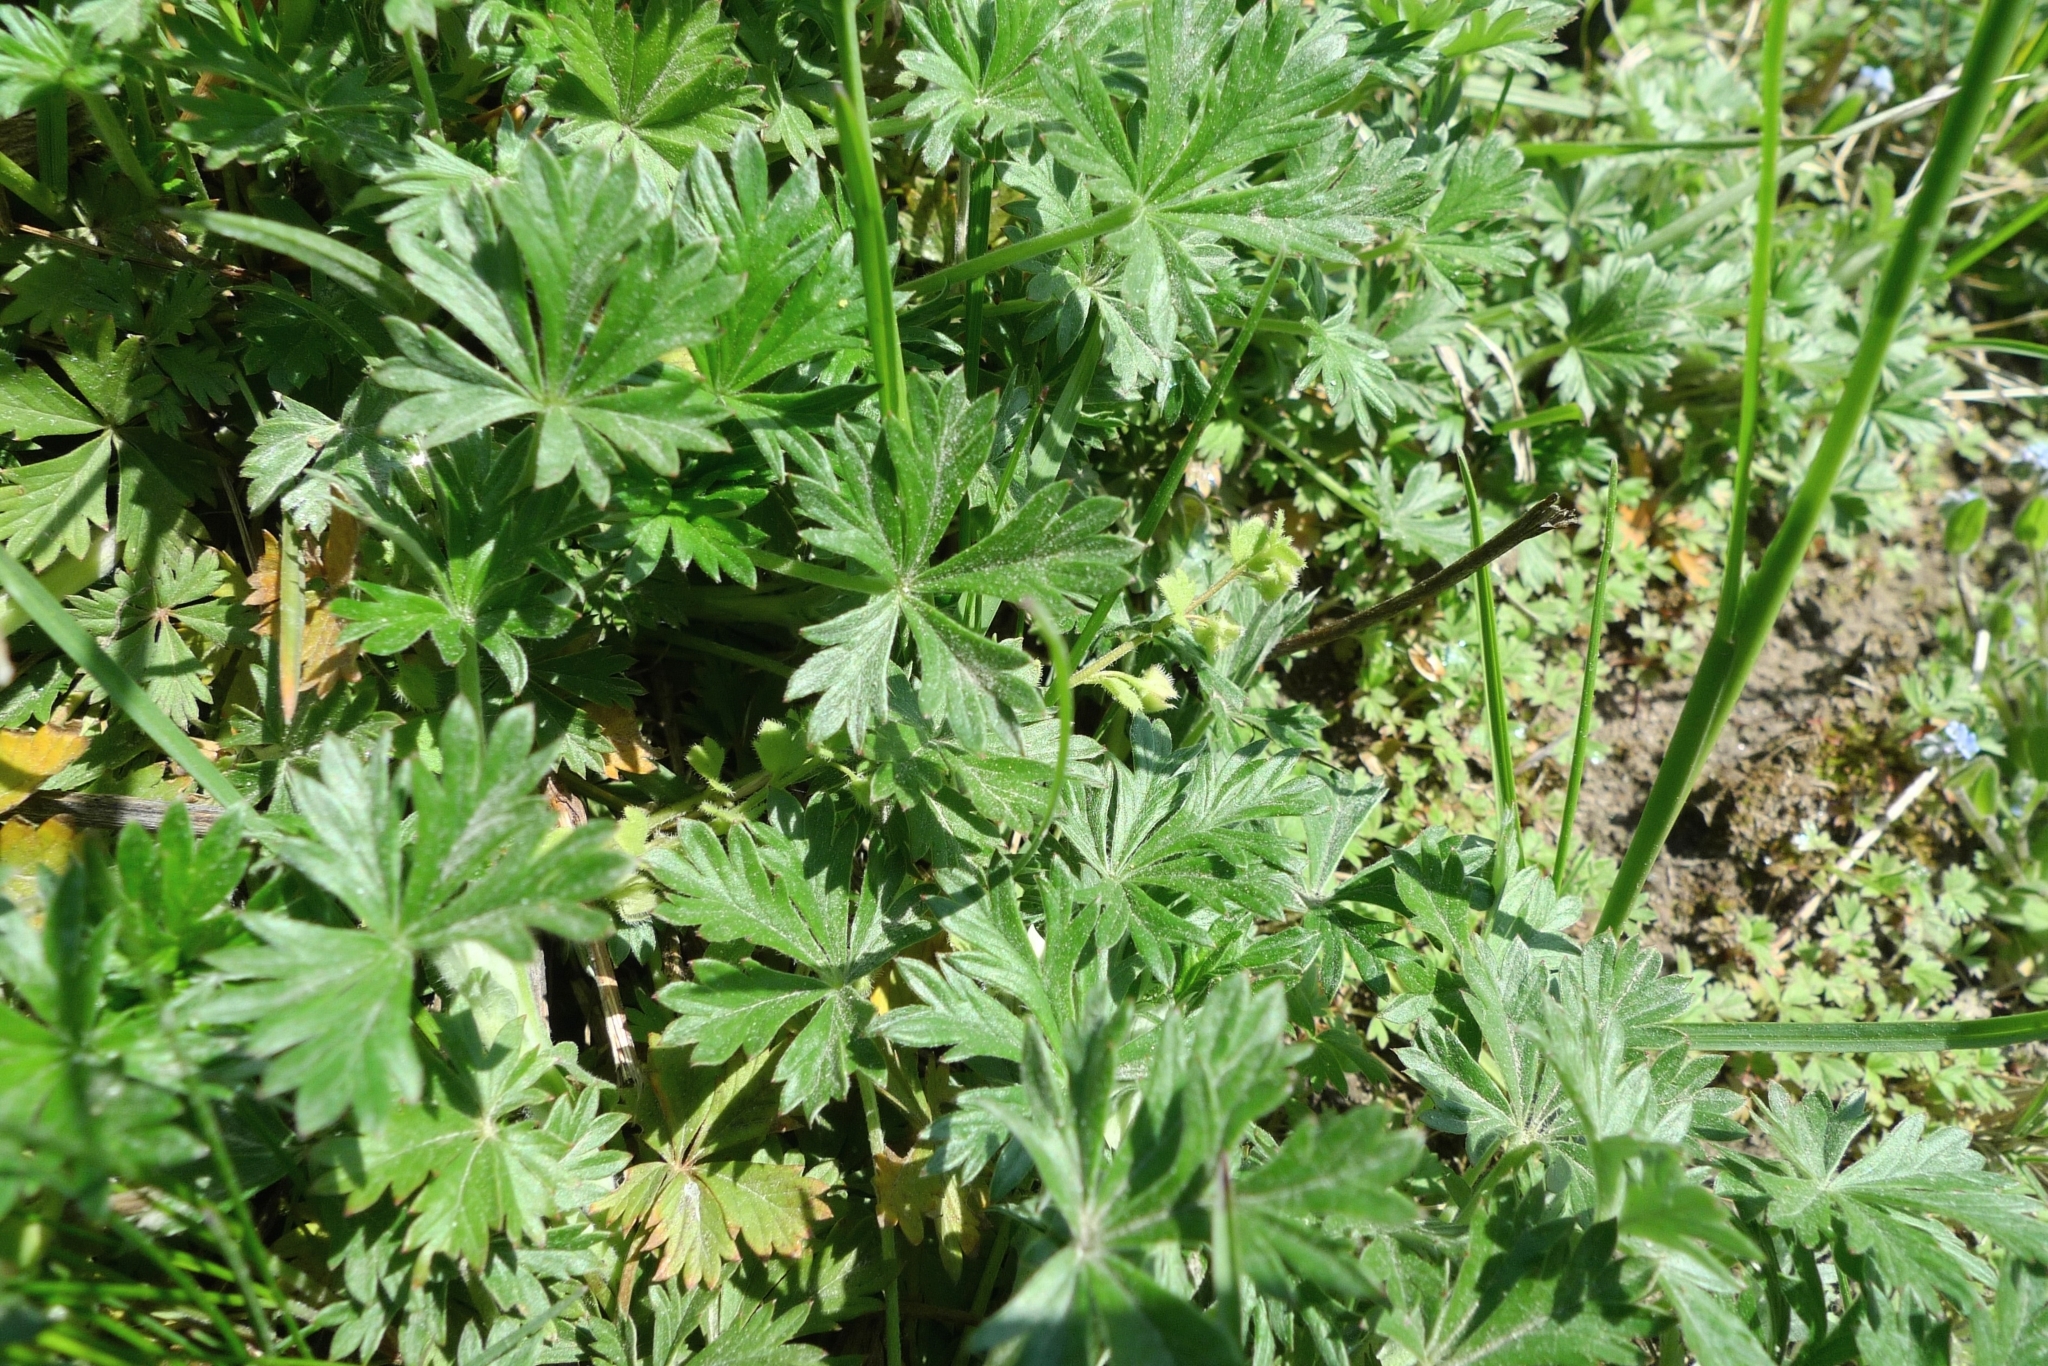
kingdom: Plantae
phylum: Tracheophyta
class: Magnoliopsida
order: Rosales
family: Rosaceae
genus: Potentilla
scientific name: Potentilla argentea
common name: Hoary cinquefoil
